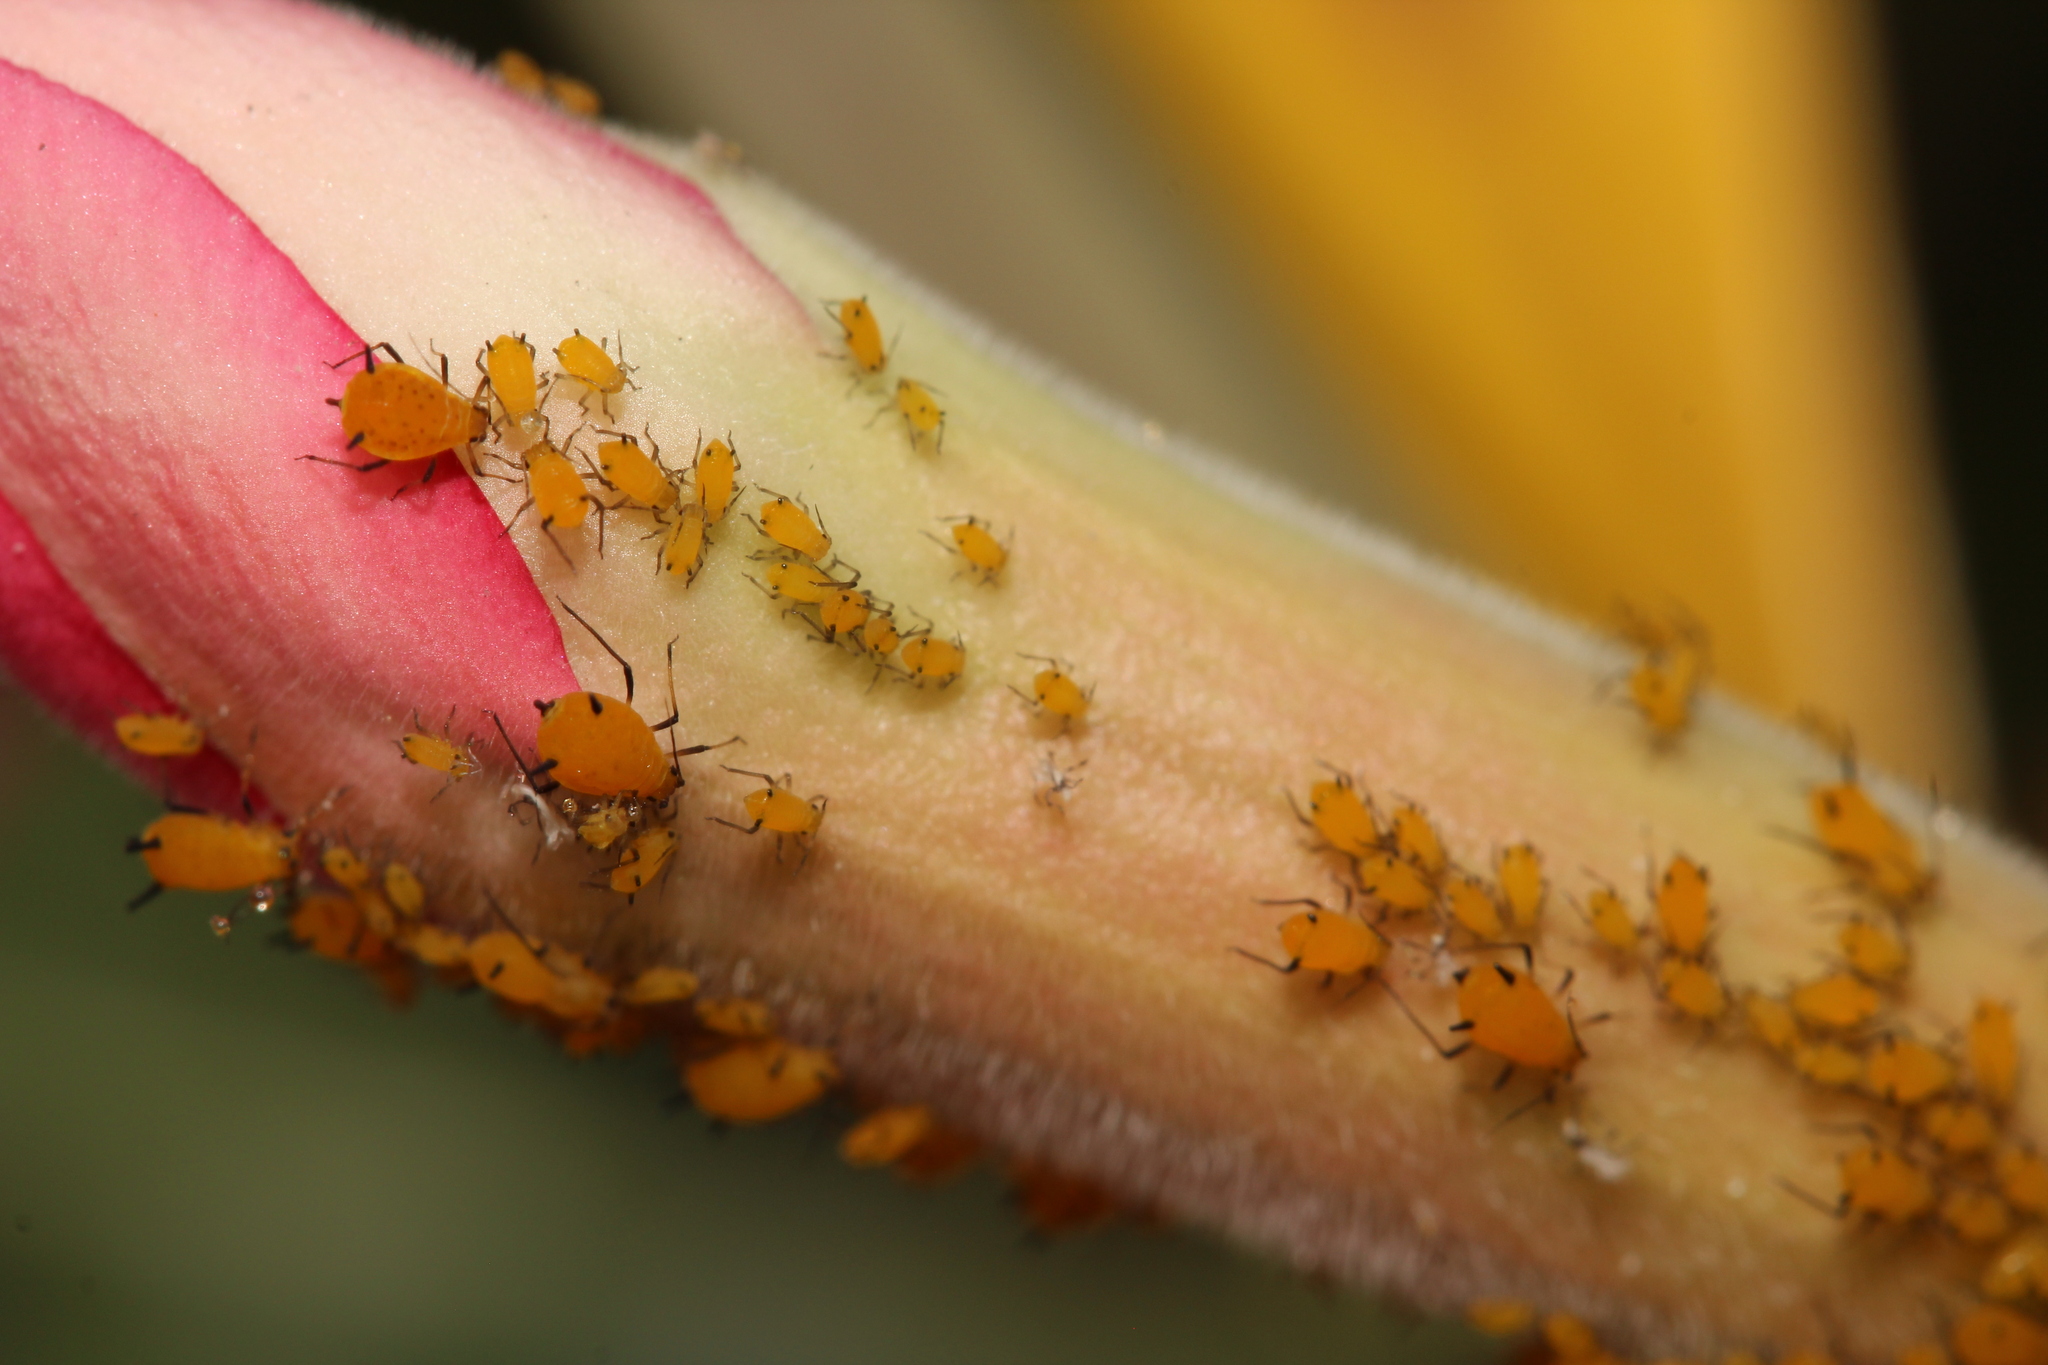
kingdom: Animalia
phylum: Arthropoda
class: Insecta
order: Hemiptera
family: Aphididae
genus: Aphis
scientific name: Aphis nerii
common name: Oleander aphid
